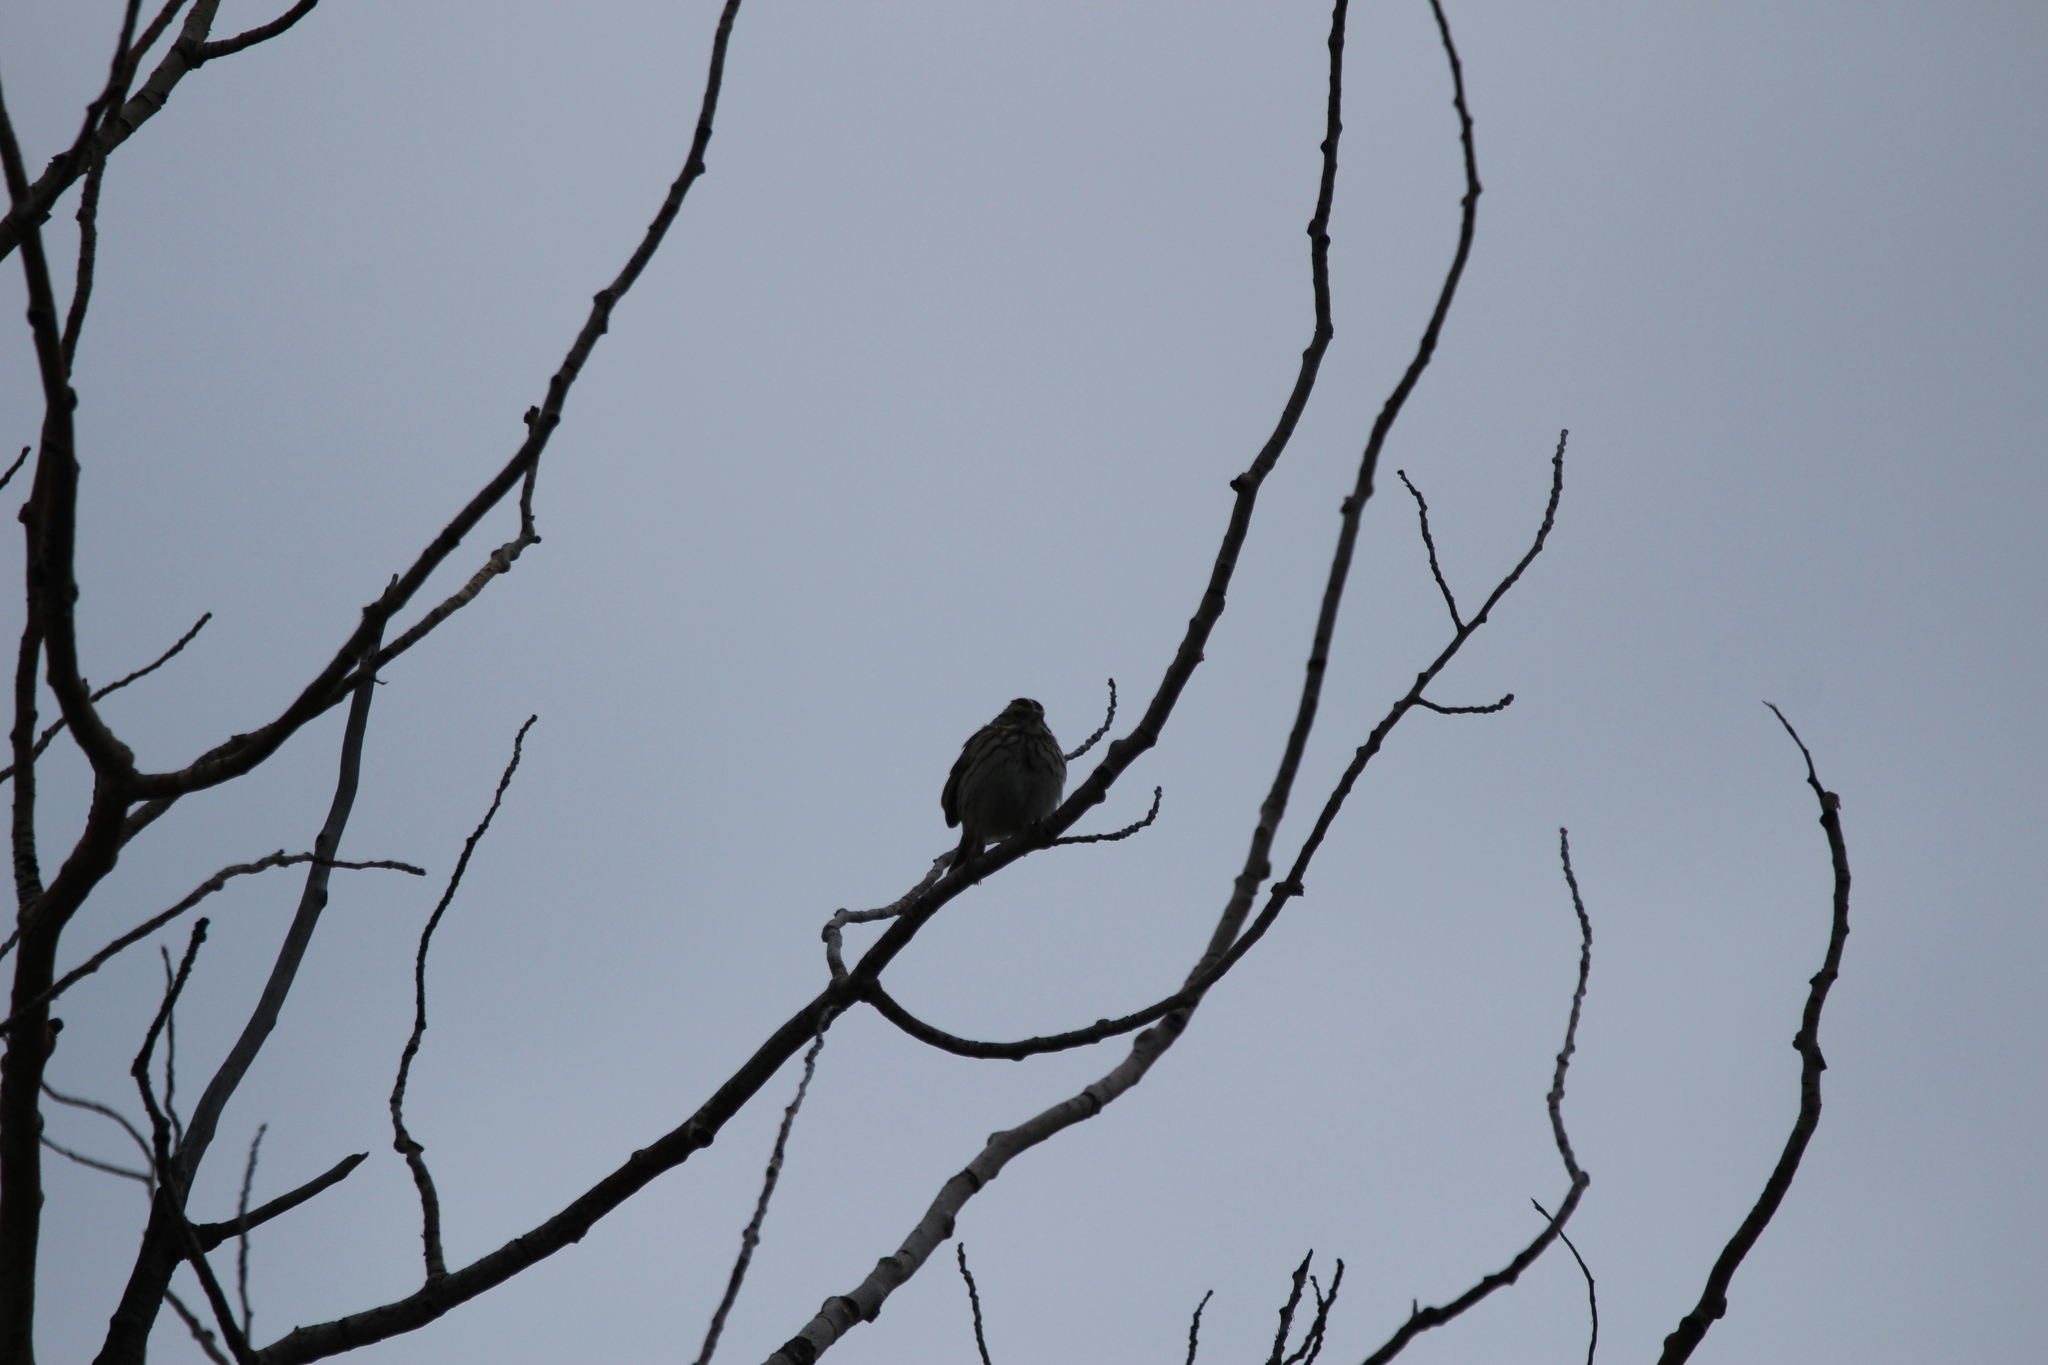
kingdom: Animalia
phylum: Chordata
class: Aves
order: Passeriformes
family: Passerellidae
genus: Passerculus
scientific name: Passerculus sandwichensis
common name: Savannah sparrow
